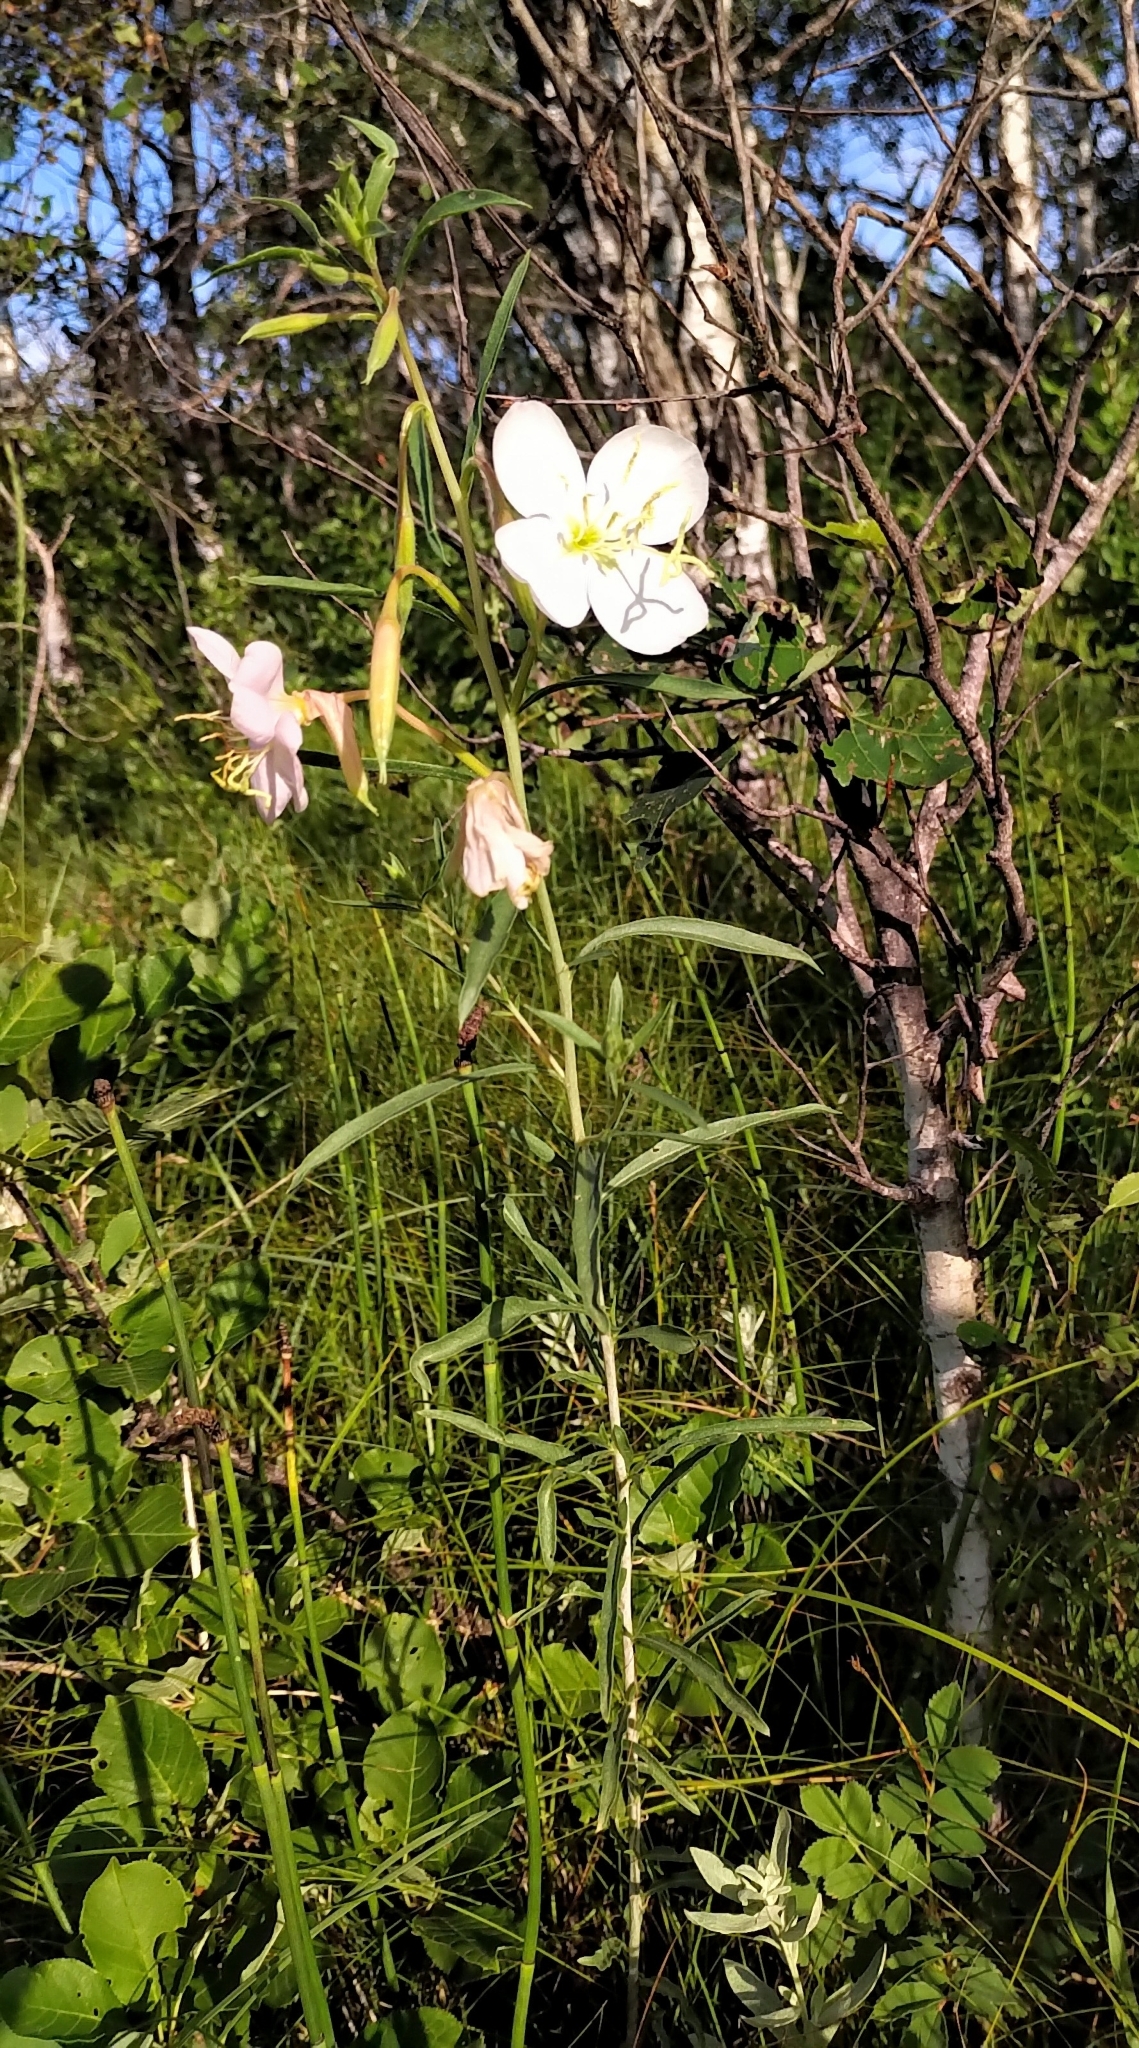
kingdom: Plantae
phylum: Tracheophyta
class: Magnoliopsida
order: Myrtales
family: Onagraceae
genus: Oenothera
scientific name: Oenothera nuttallii
